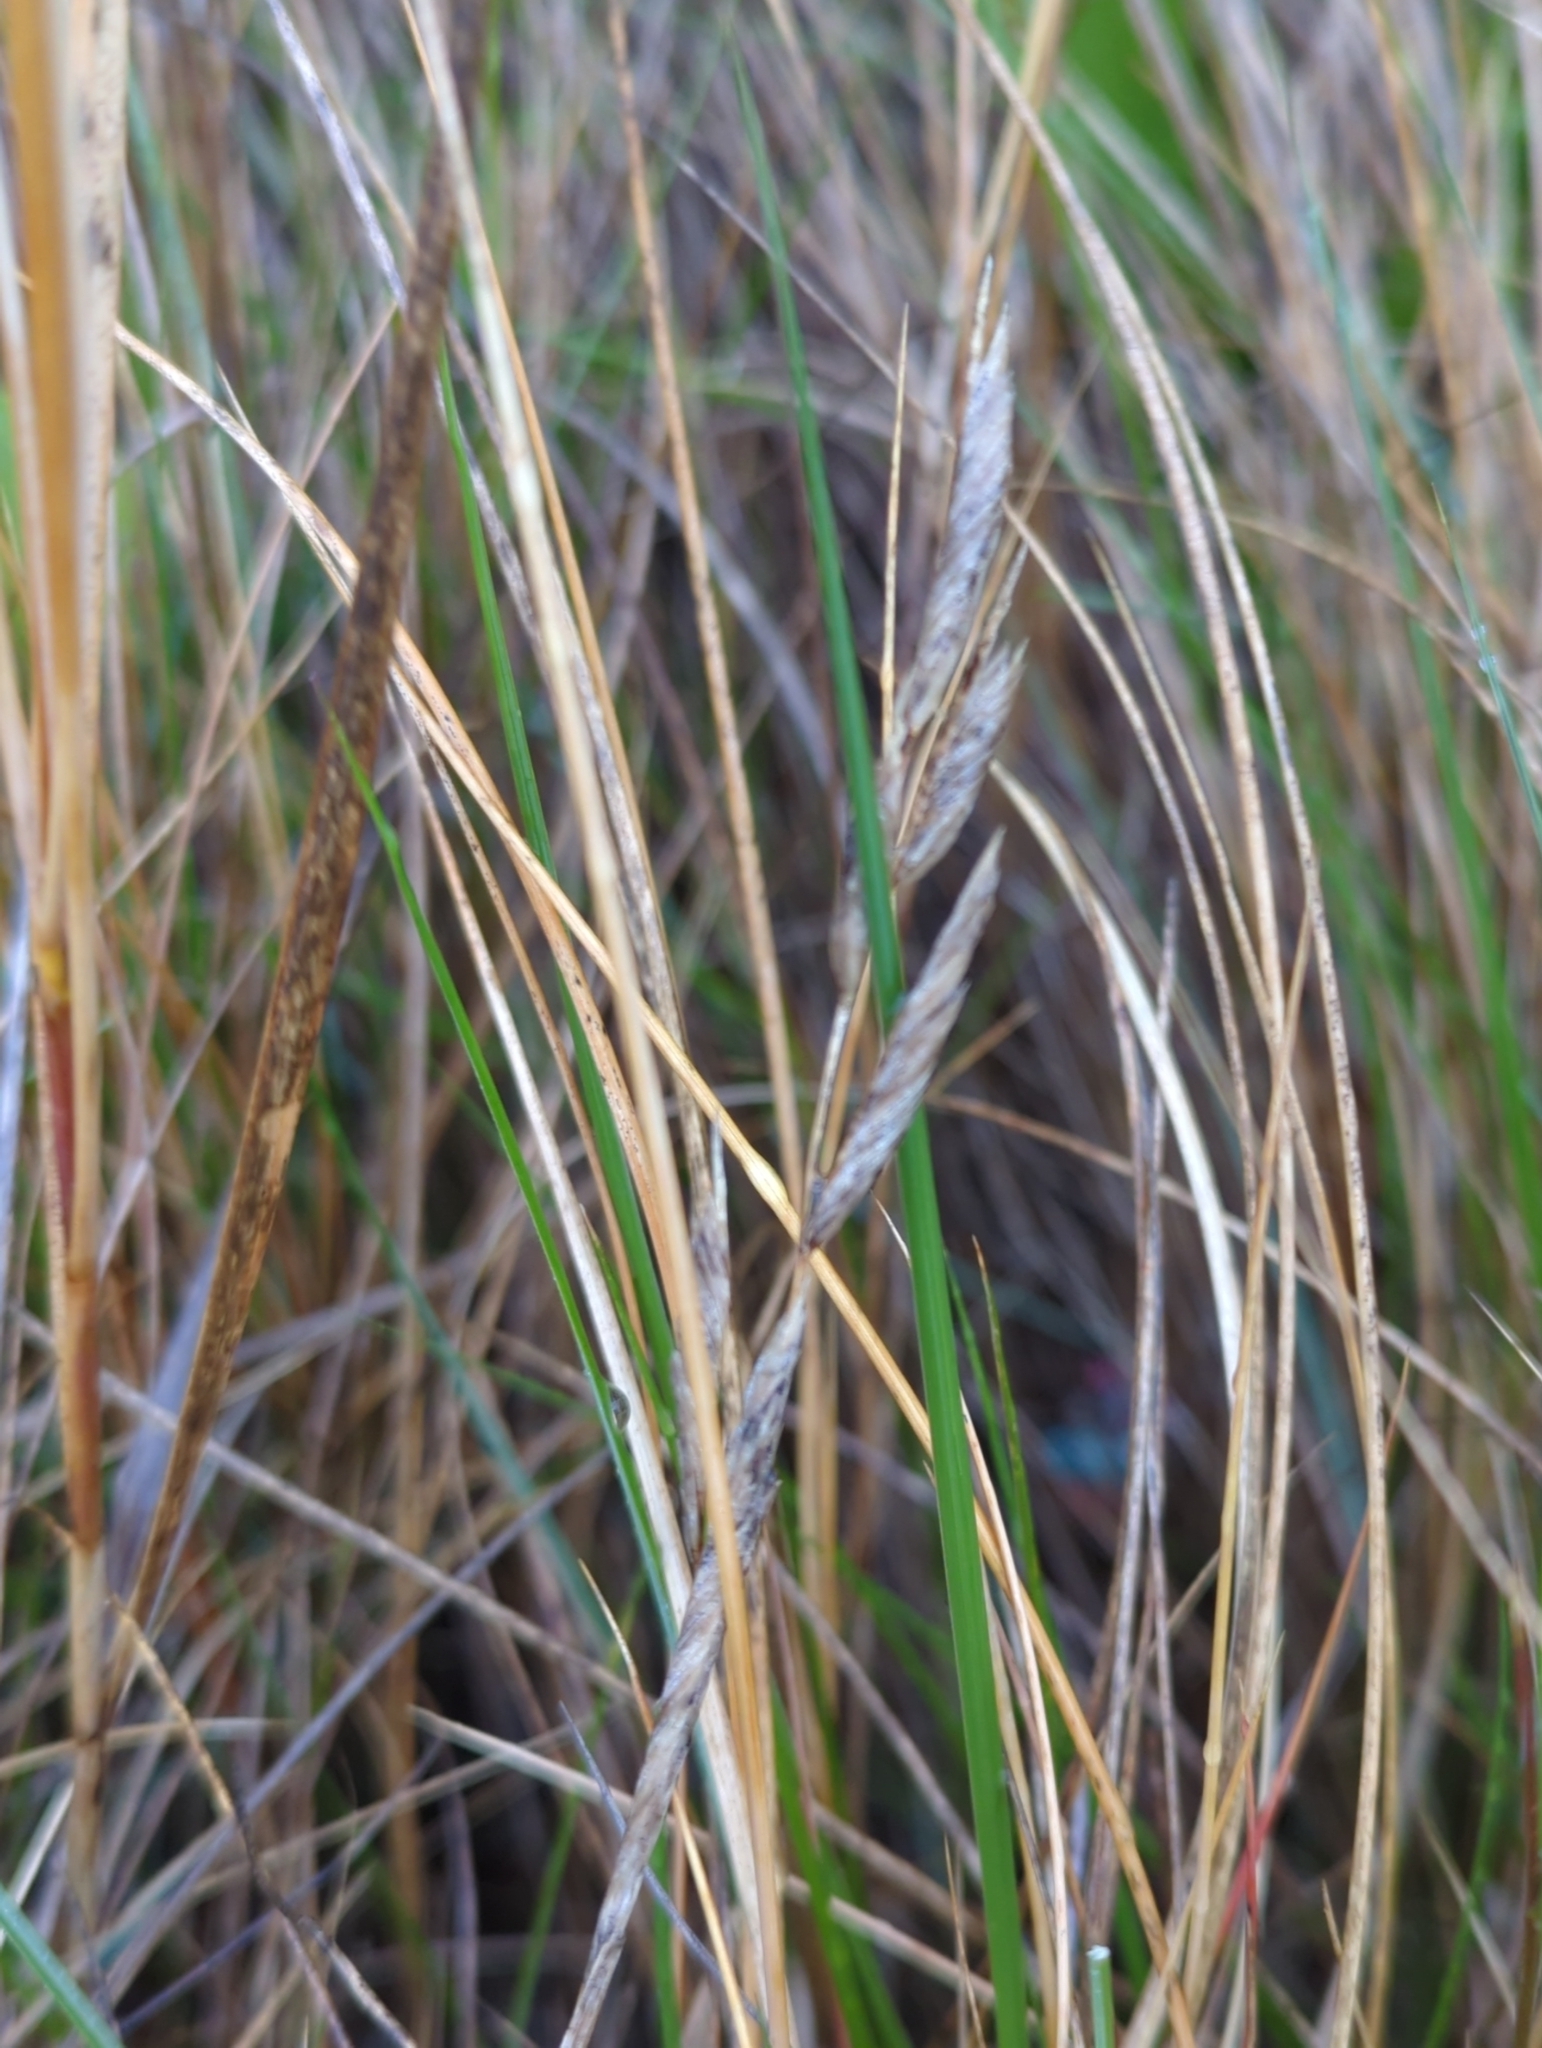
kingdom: Plantae
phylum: Tracheophyta
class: Liliopsida
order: Poales
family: Poaceae
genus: Sporobolus
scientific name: Sporobolus pumilus
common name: Highwater grass
